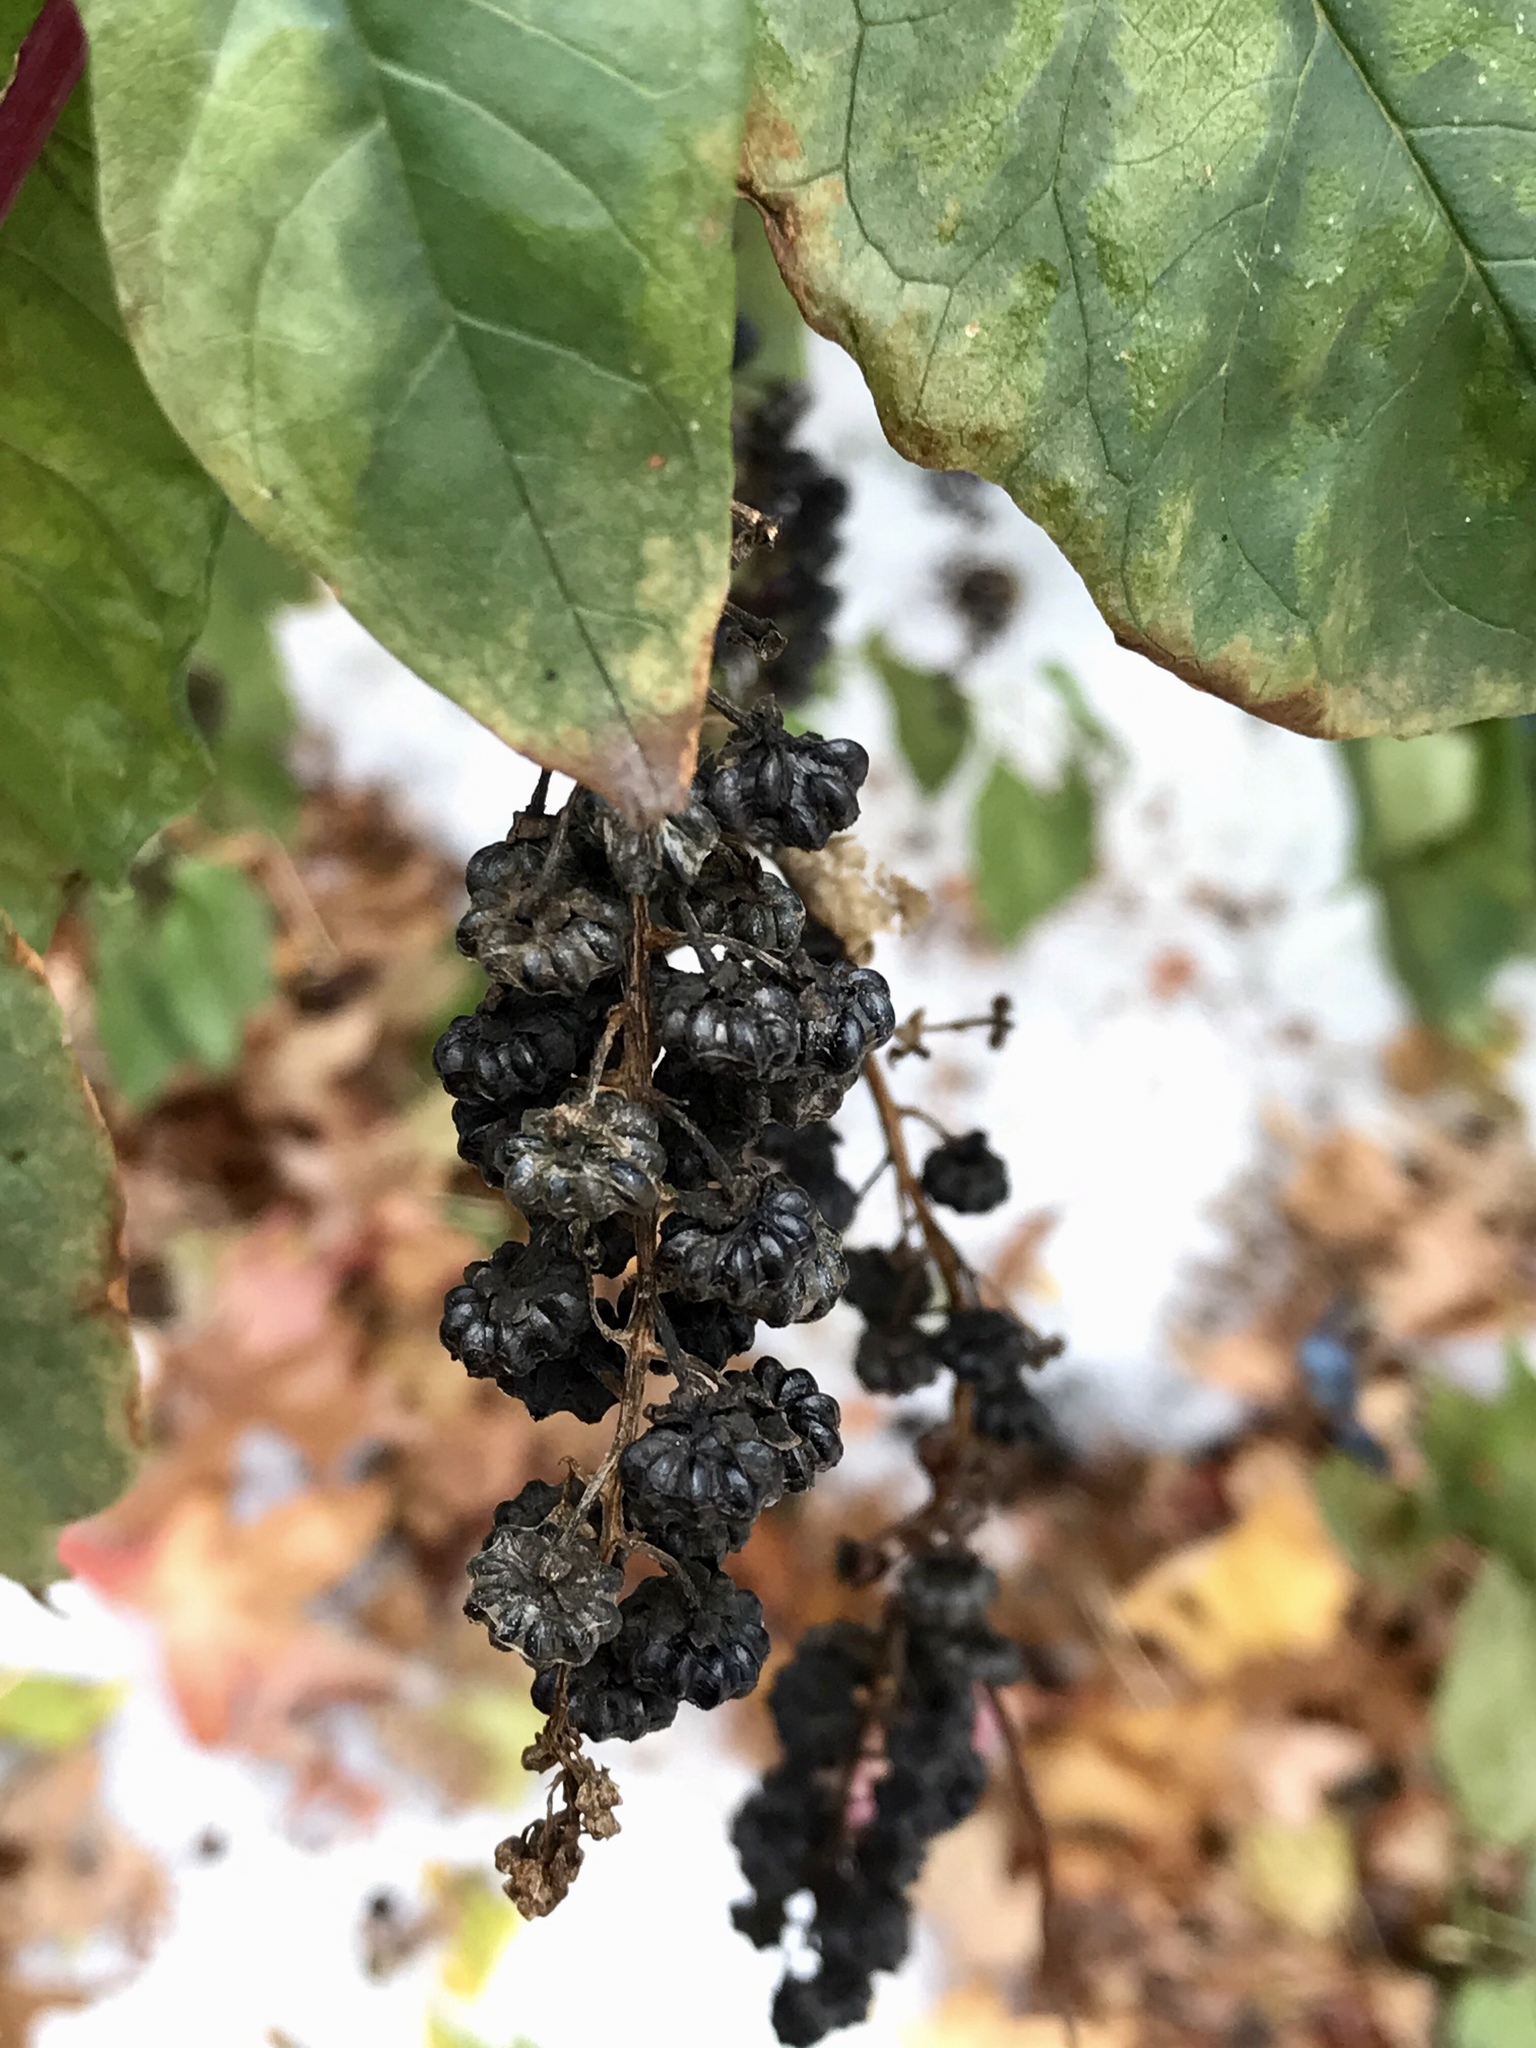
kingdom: Plantae
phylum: Tracheophyta
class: Magnoliopsida
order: Caryophyllales
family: Phytolaccaceae
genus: Phytolacca
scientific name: Phytolacca americana
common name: American pokeweed
